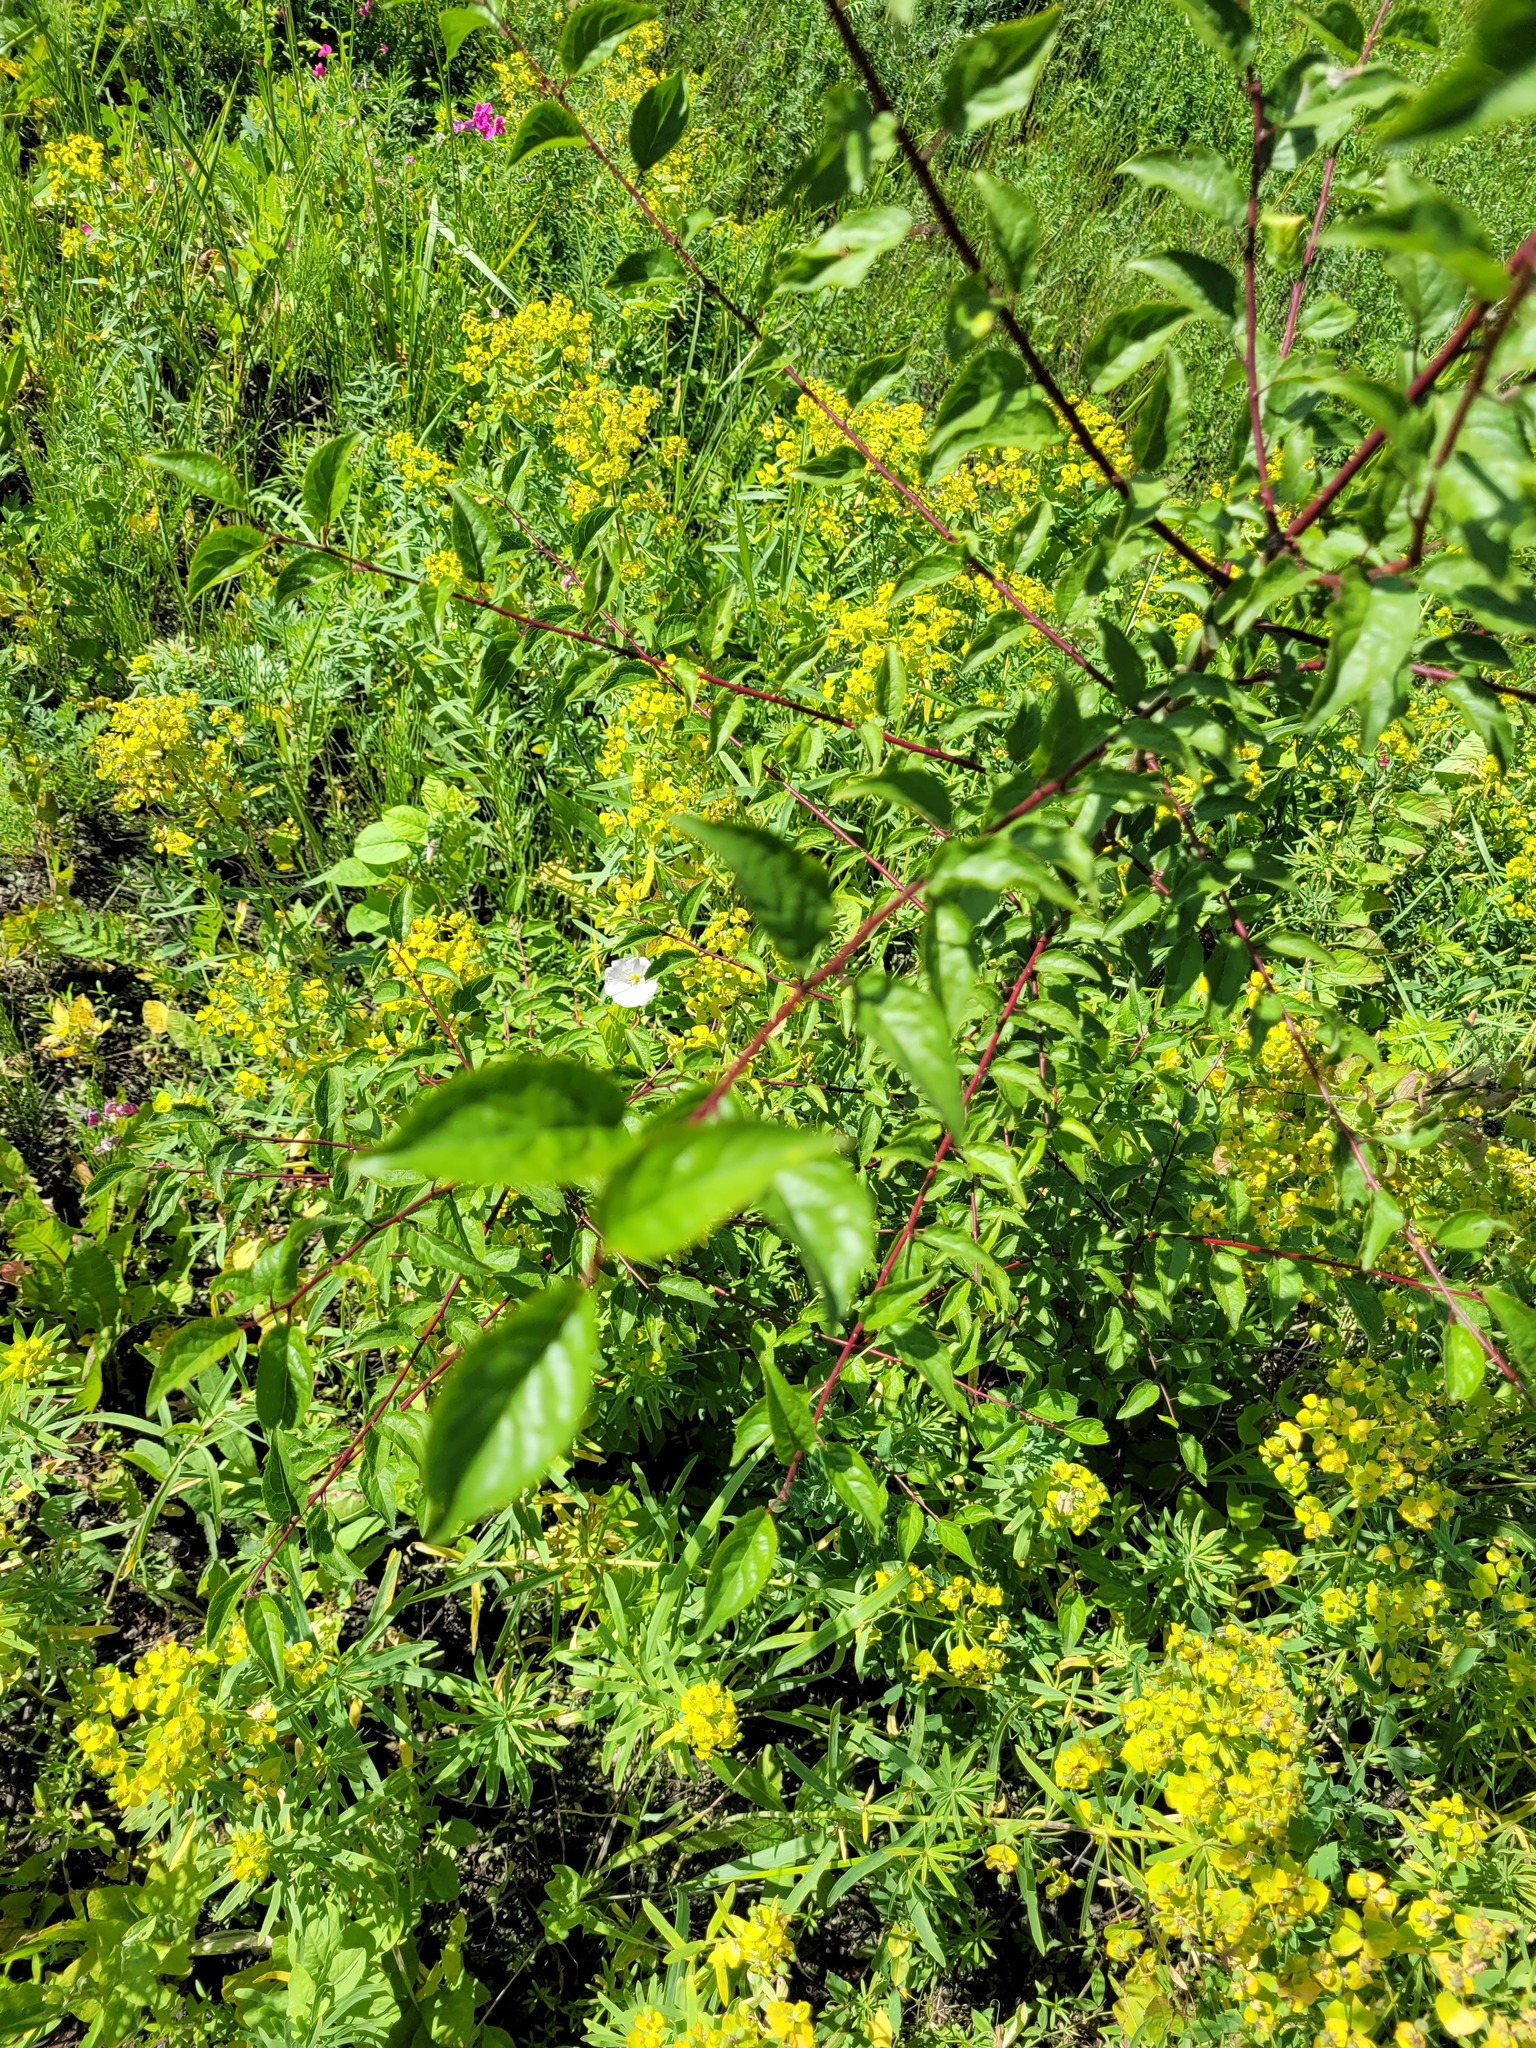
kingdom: Plantae
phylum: Tracheophyta
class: Magnoliopsida
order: Rosales
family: Rosaceae
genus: Prunus
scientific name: Prunus cerasifera
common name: Cherry plum
